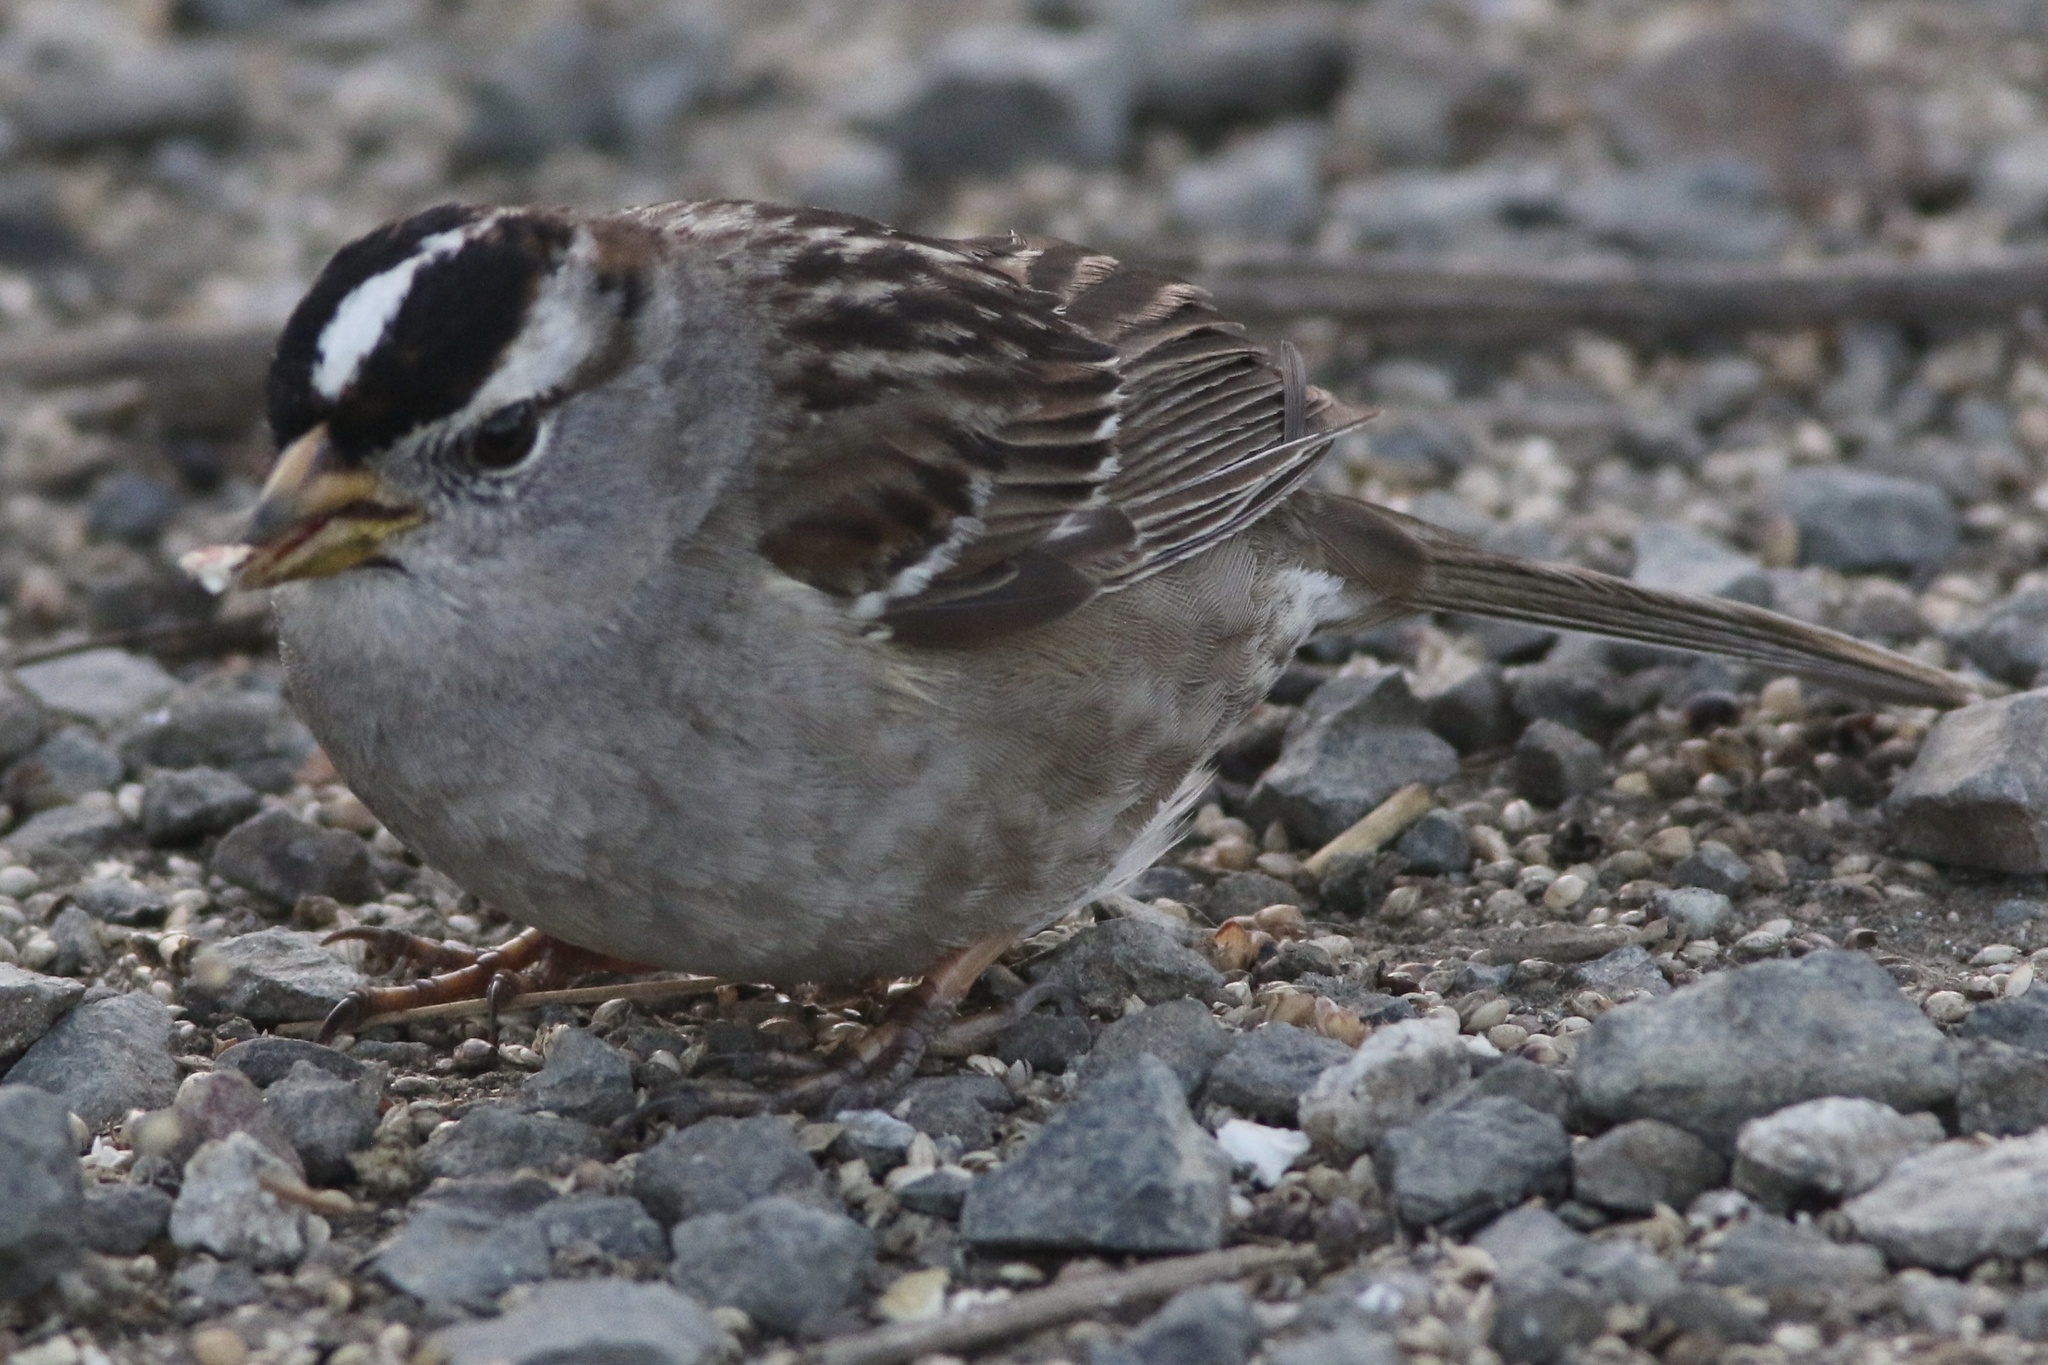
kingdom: Animalia
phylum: Chordata
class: Aves
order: Passeriformes
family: Passerellidae
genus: Zonotrichia
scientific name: Zonotrichia leucophrys
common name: White-crowned sparrow
